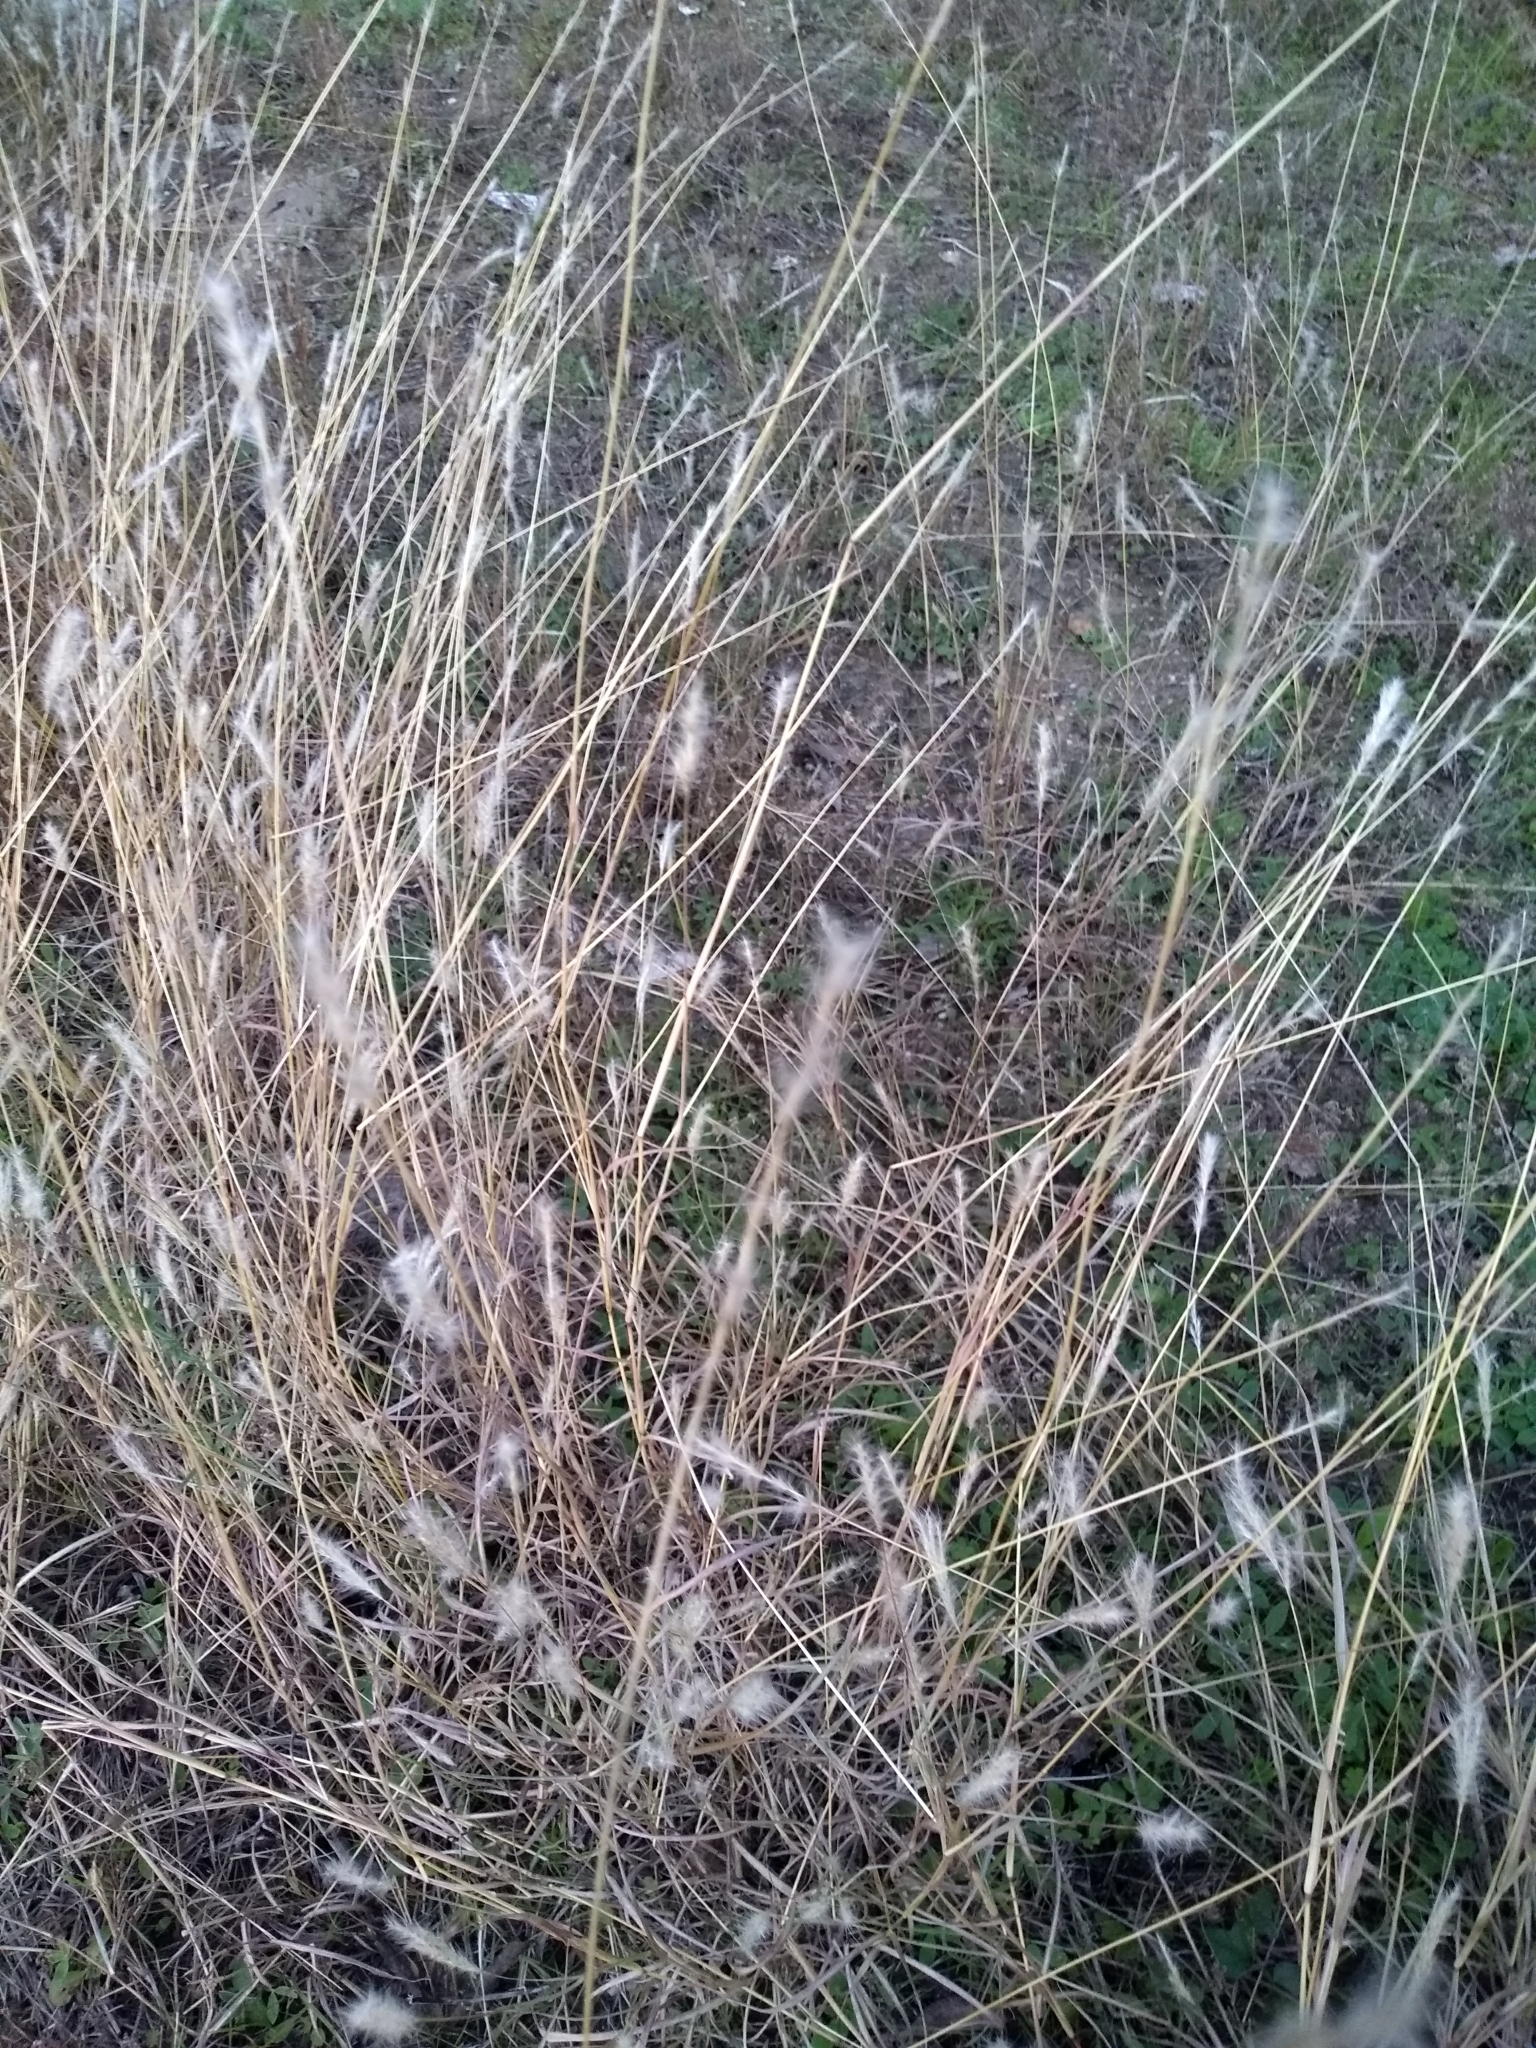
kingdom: Plantae
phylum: Tracheophyta
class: Liliopsida
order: Poales
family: Poaceae
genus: Bothriochloa
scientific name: Bothriochloa torreyana
